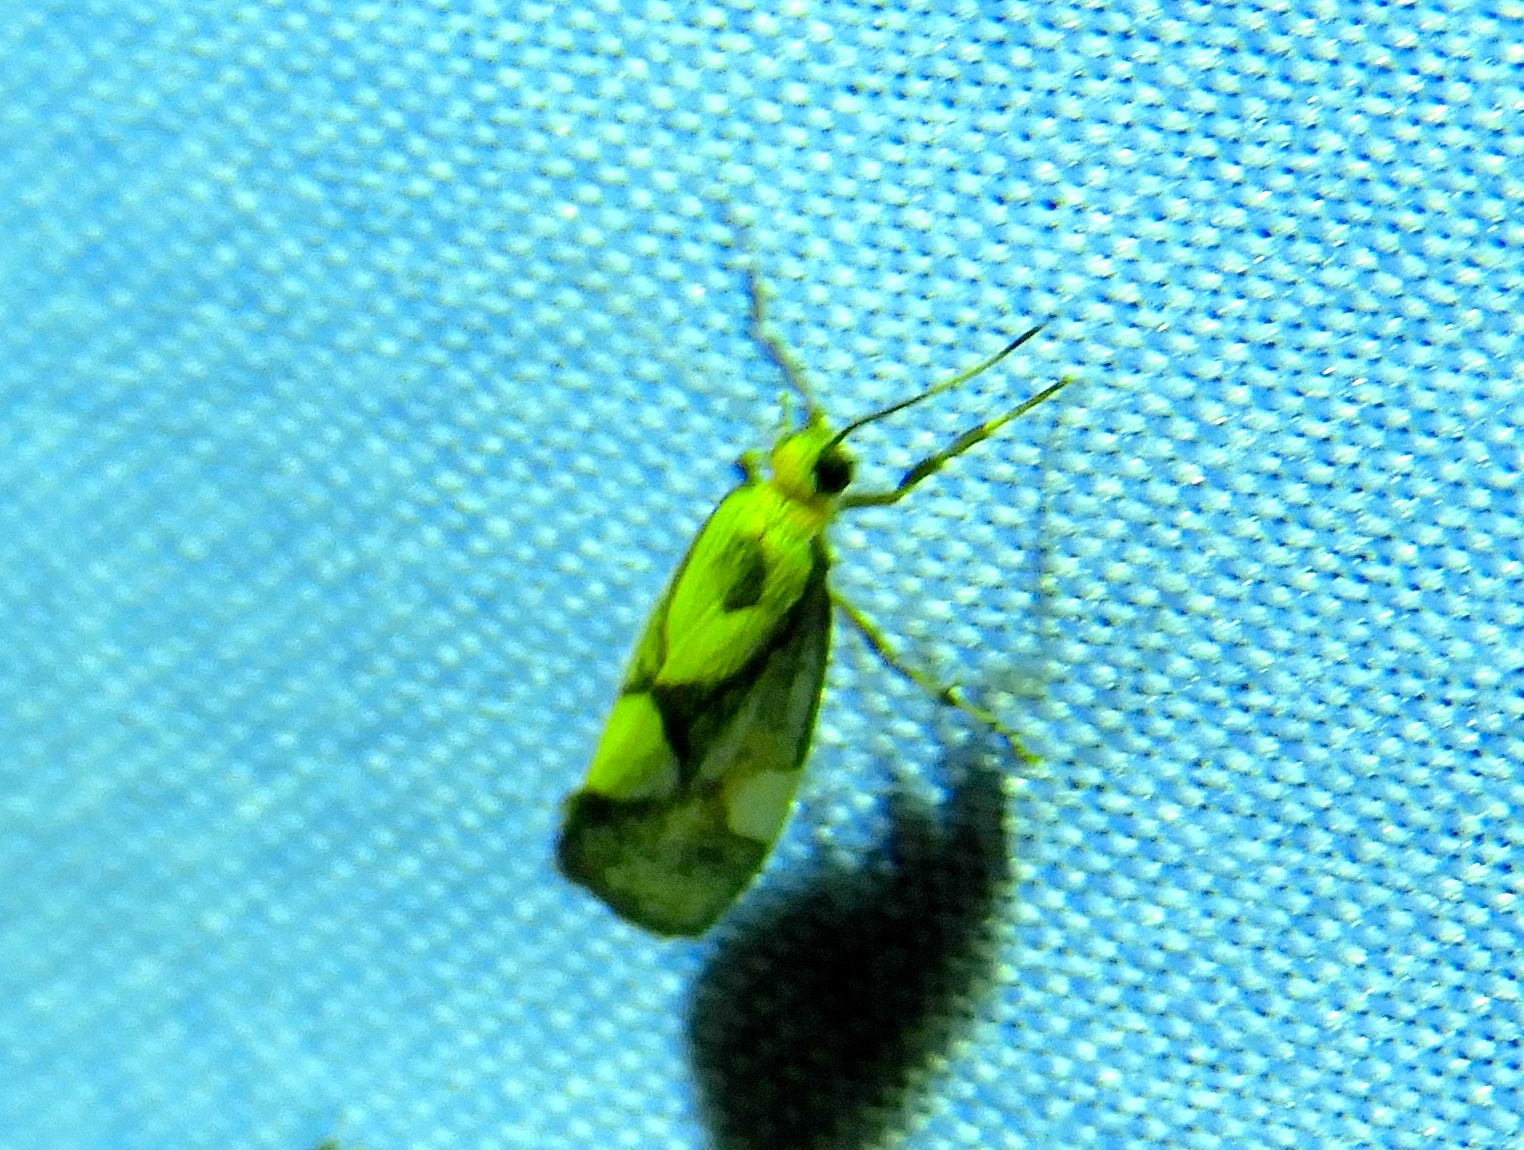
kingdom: Animalia
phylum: Arthropoda
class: Insecta
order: Lepidoptera
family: Erebidae
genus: Cisthene
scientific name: Cisthene
